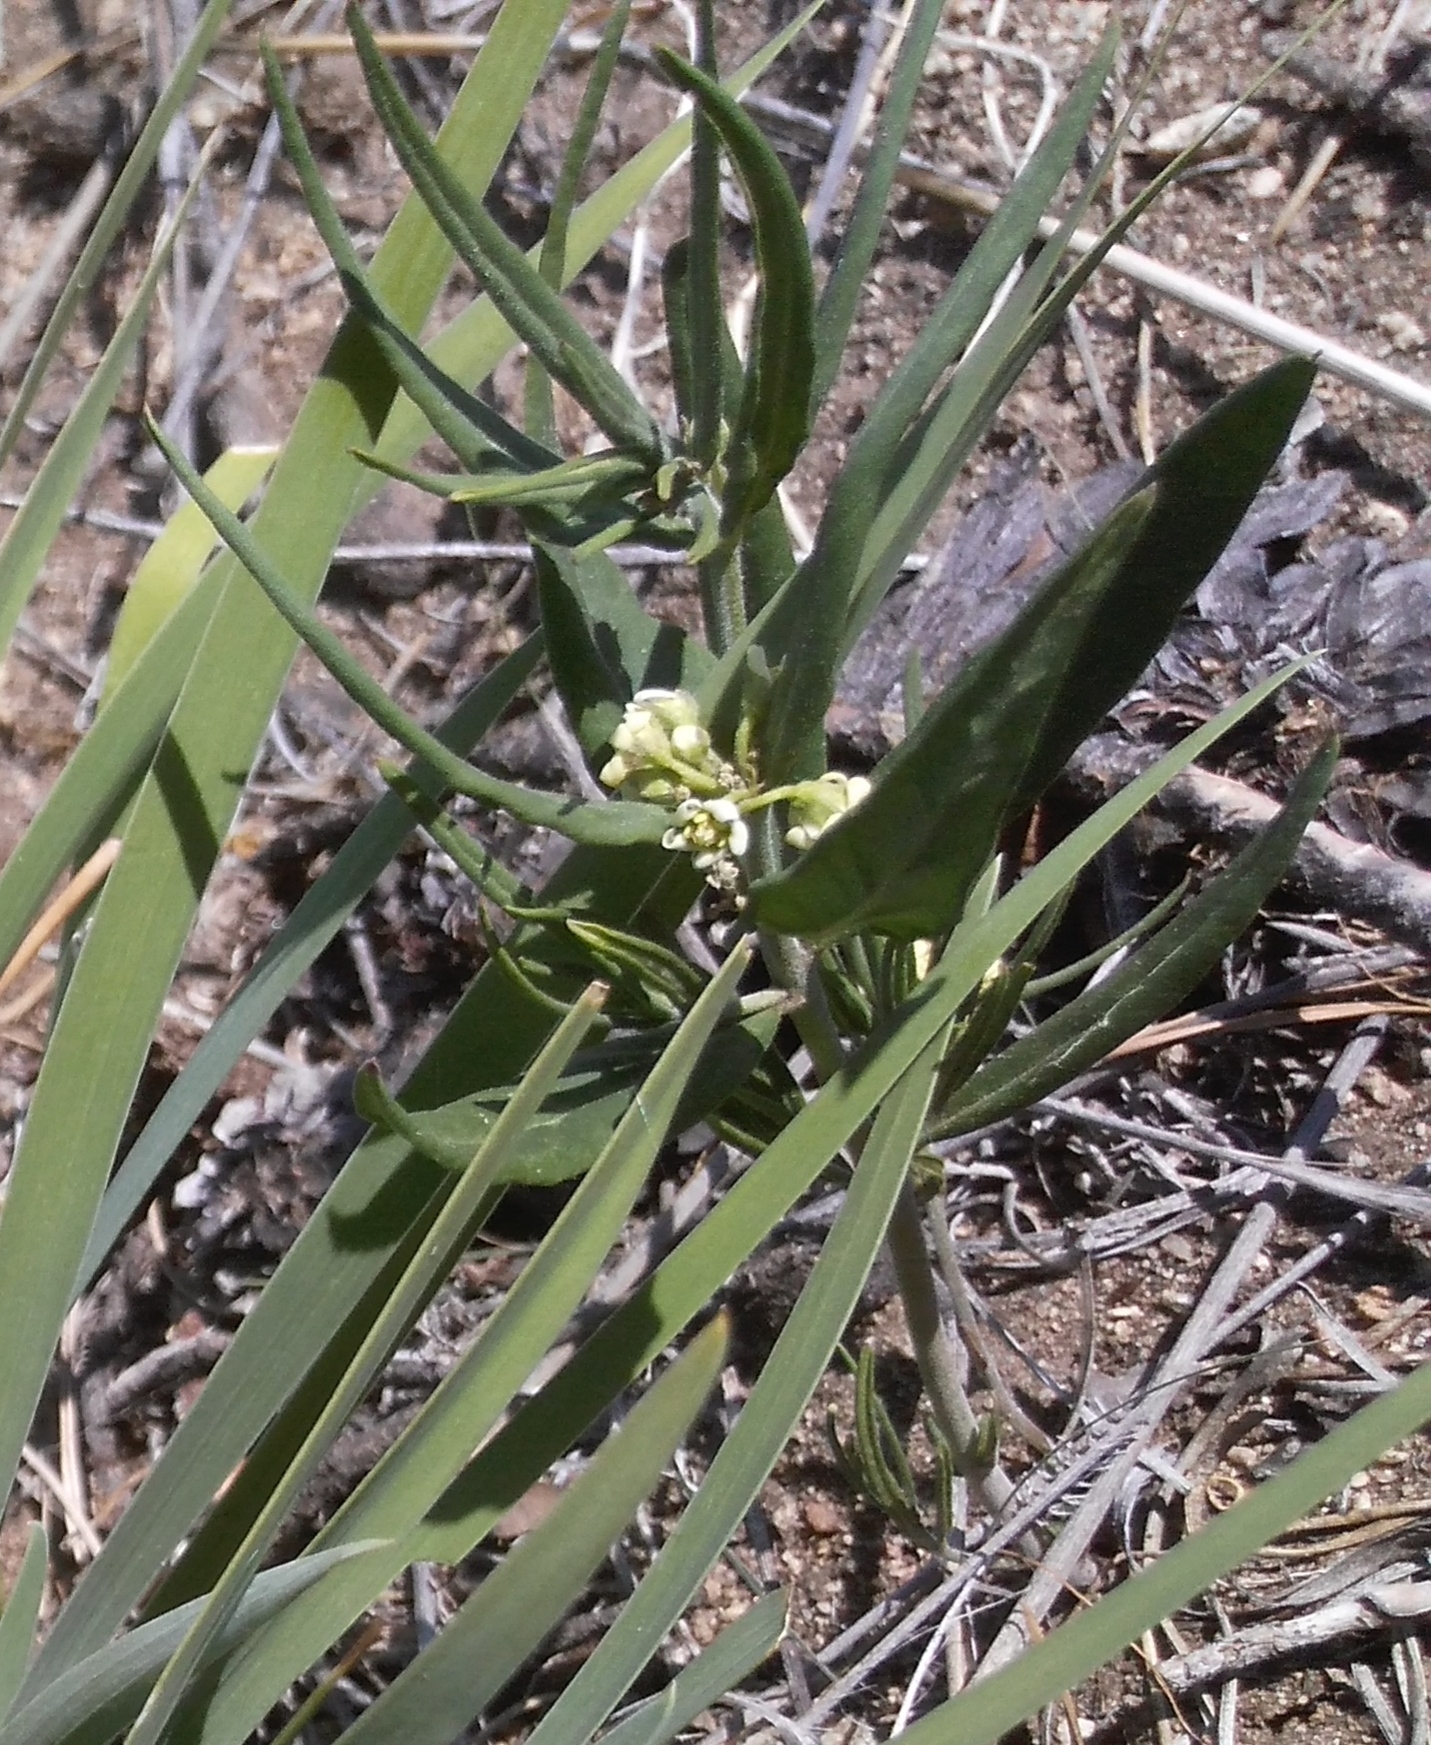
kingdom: Plantae
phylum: Tracheophyta
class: Magnoliopsida
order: Gentianales
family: Apocynaceae
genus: Cynanchum
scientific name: Cynanchum thesioides
